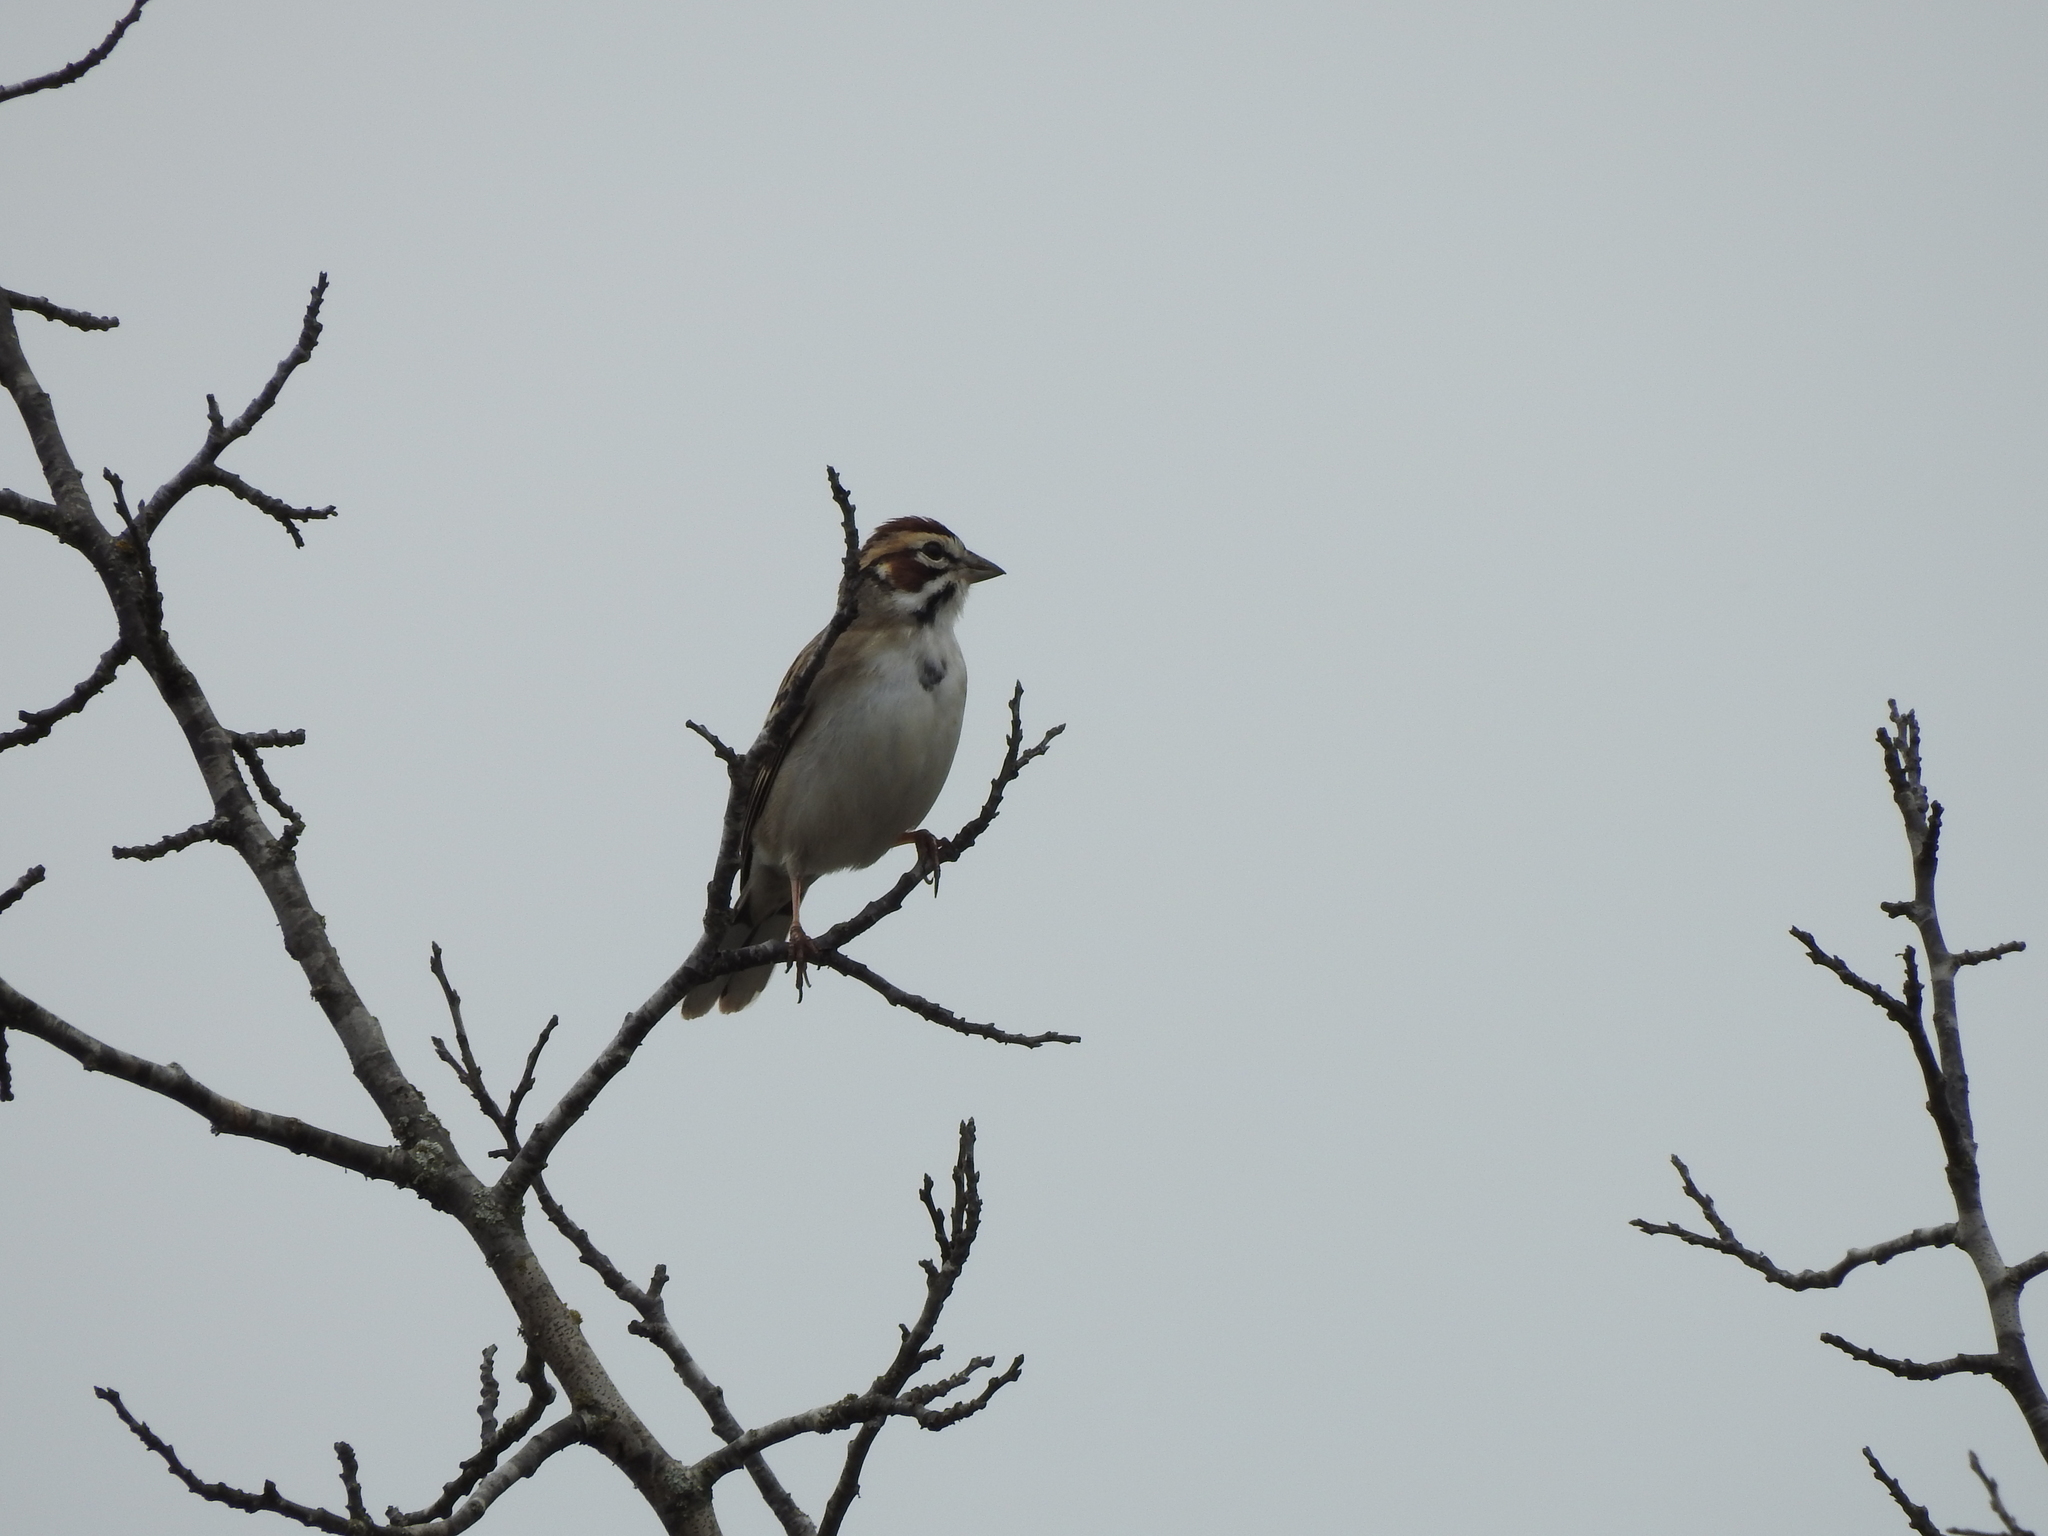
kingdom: Animalia
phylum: Chordata
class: Aves
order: Passeriformes
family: Passerellidae
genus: Chondestes
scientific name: Chondestes grammacus
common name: Lark sparrow
